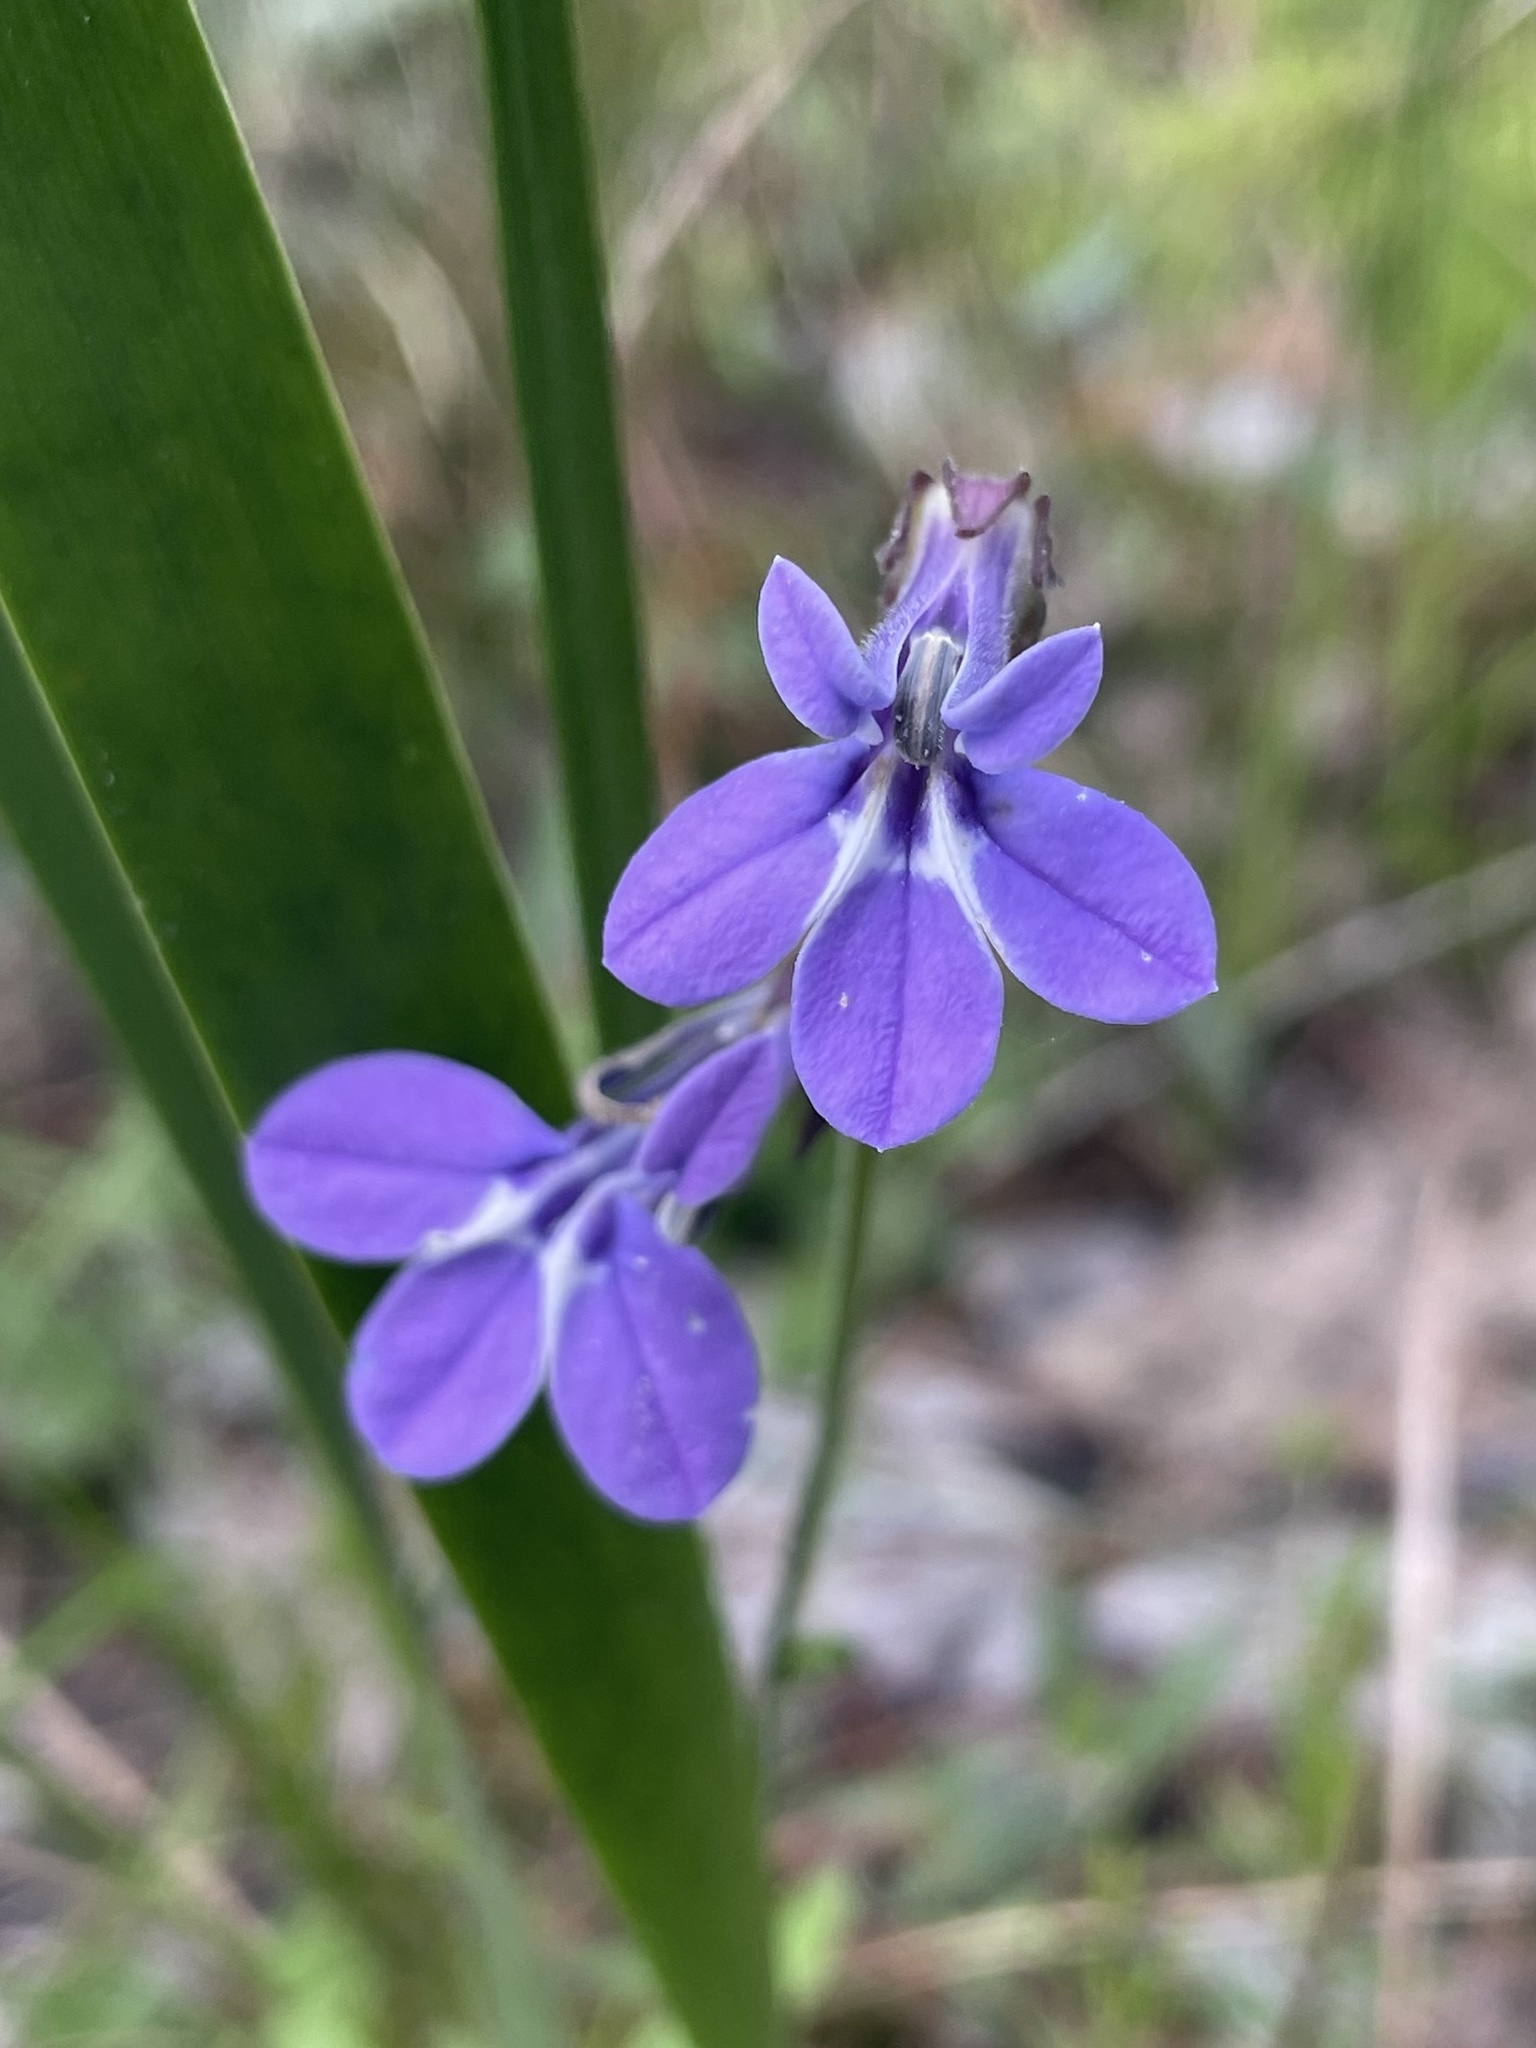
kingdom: Plantae
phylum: Tracheophyta
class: Magnoliopsida
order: Asterales
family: Campanulaceae
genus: Lobelia
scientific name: Lobelia reverchonii
